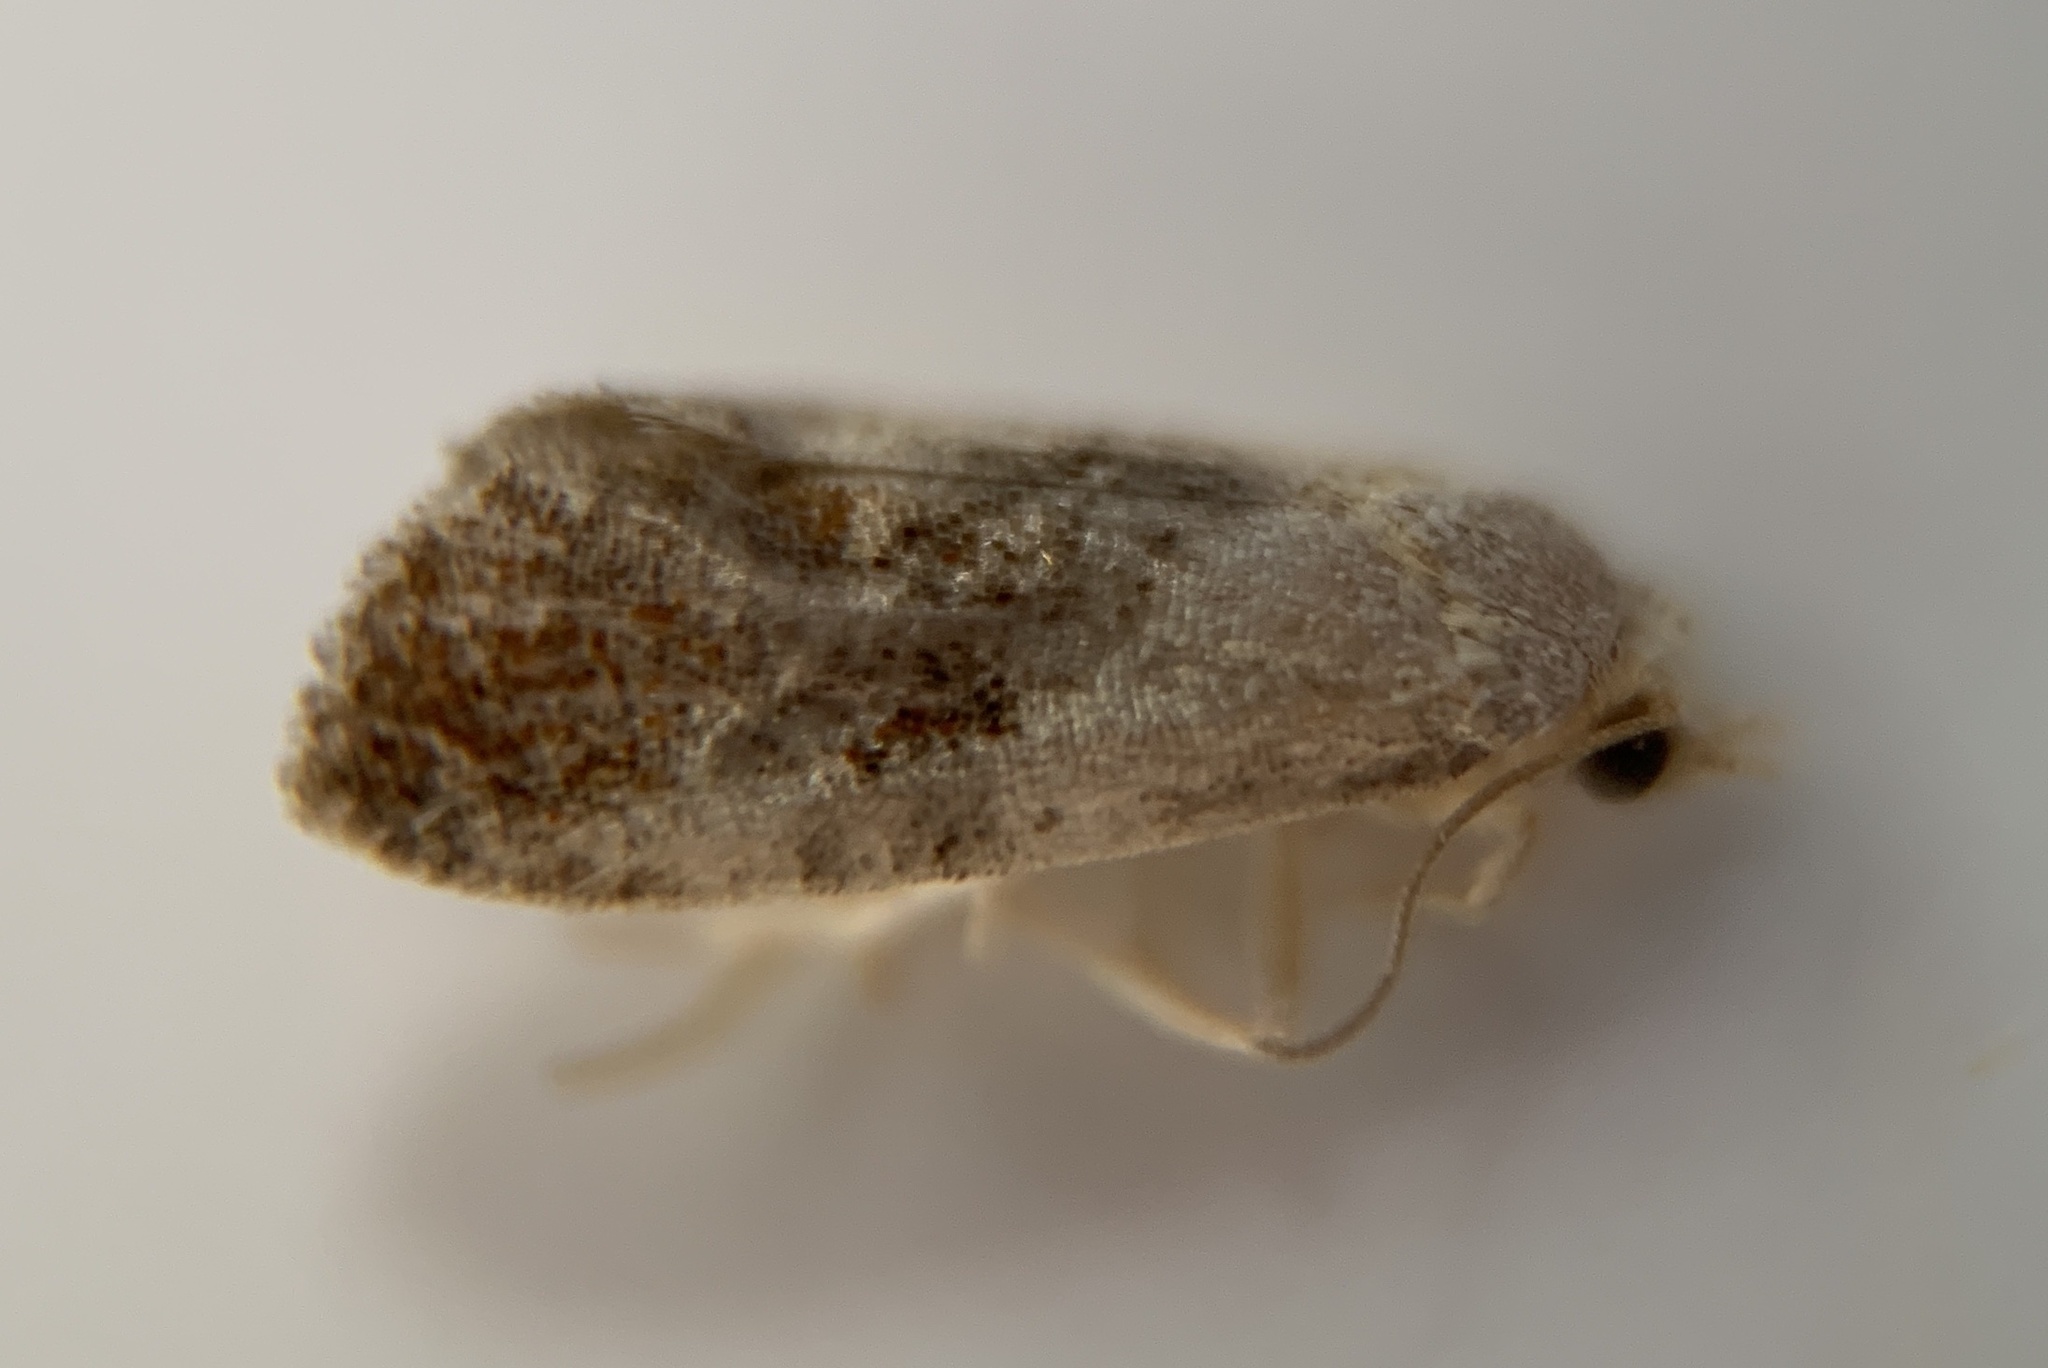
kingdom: Animalia
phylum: Arthropoda
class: Insecta
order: Lepidoptera
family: Tortricidae
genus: Phalonidia
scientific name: Phalonidia lepidana
